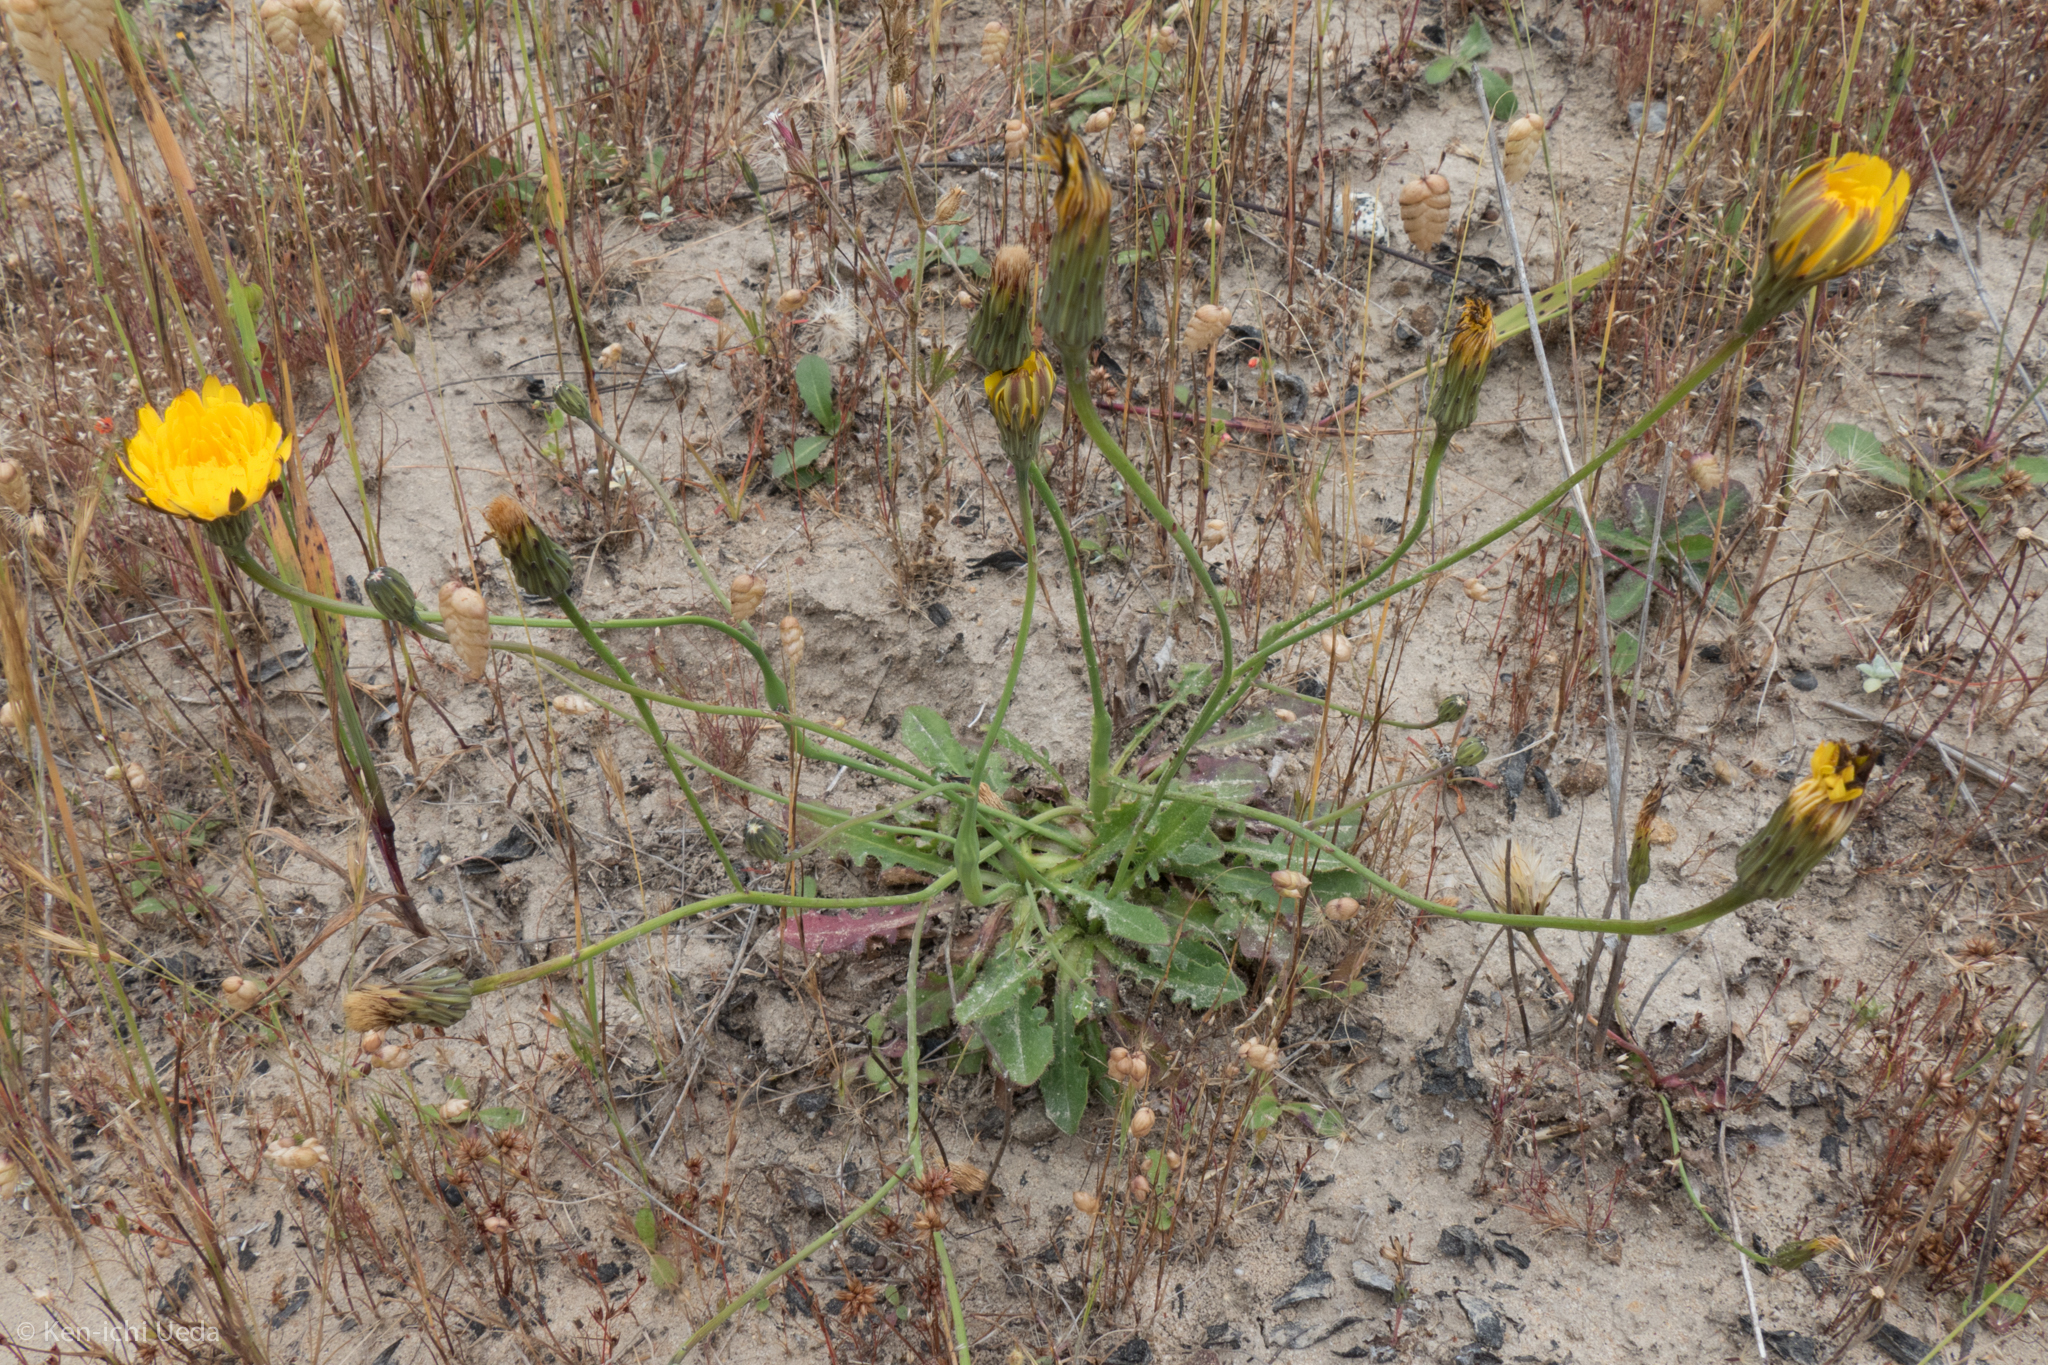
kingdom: Plantae
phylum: Tracheophyta
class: Magnoliopsida
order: Asterales
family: Asteraceae
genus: Hypochaeris
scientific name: Hypochaeris radicata
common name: Flatweed
